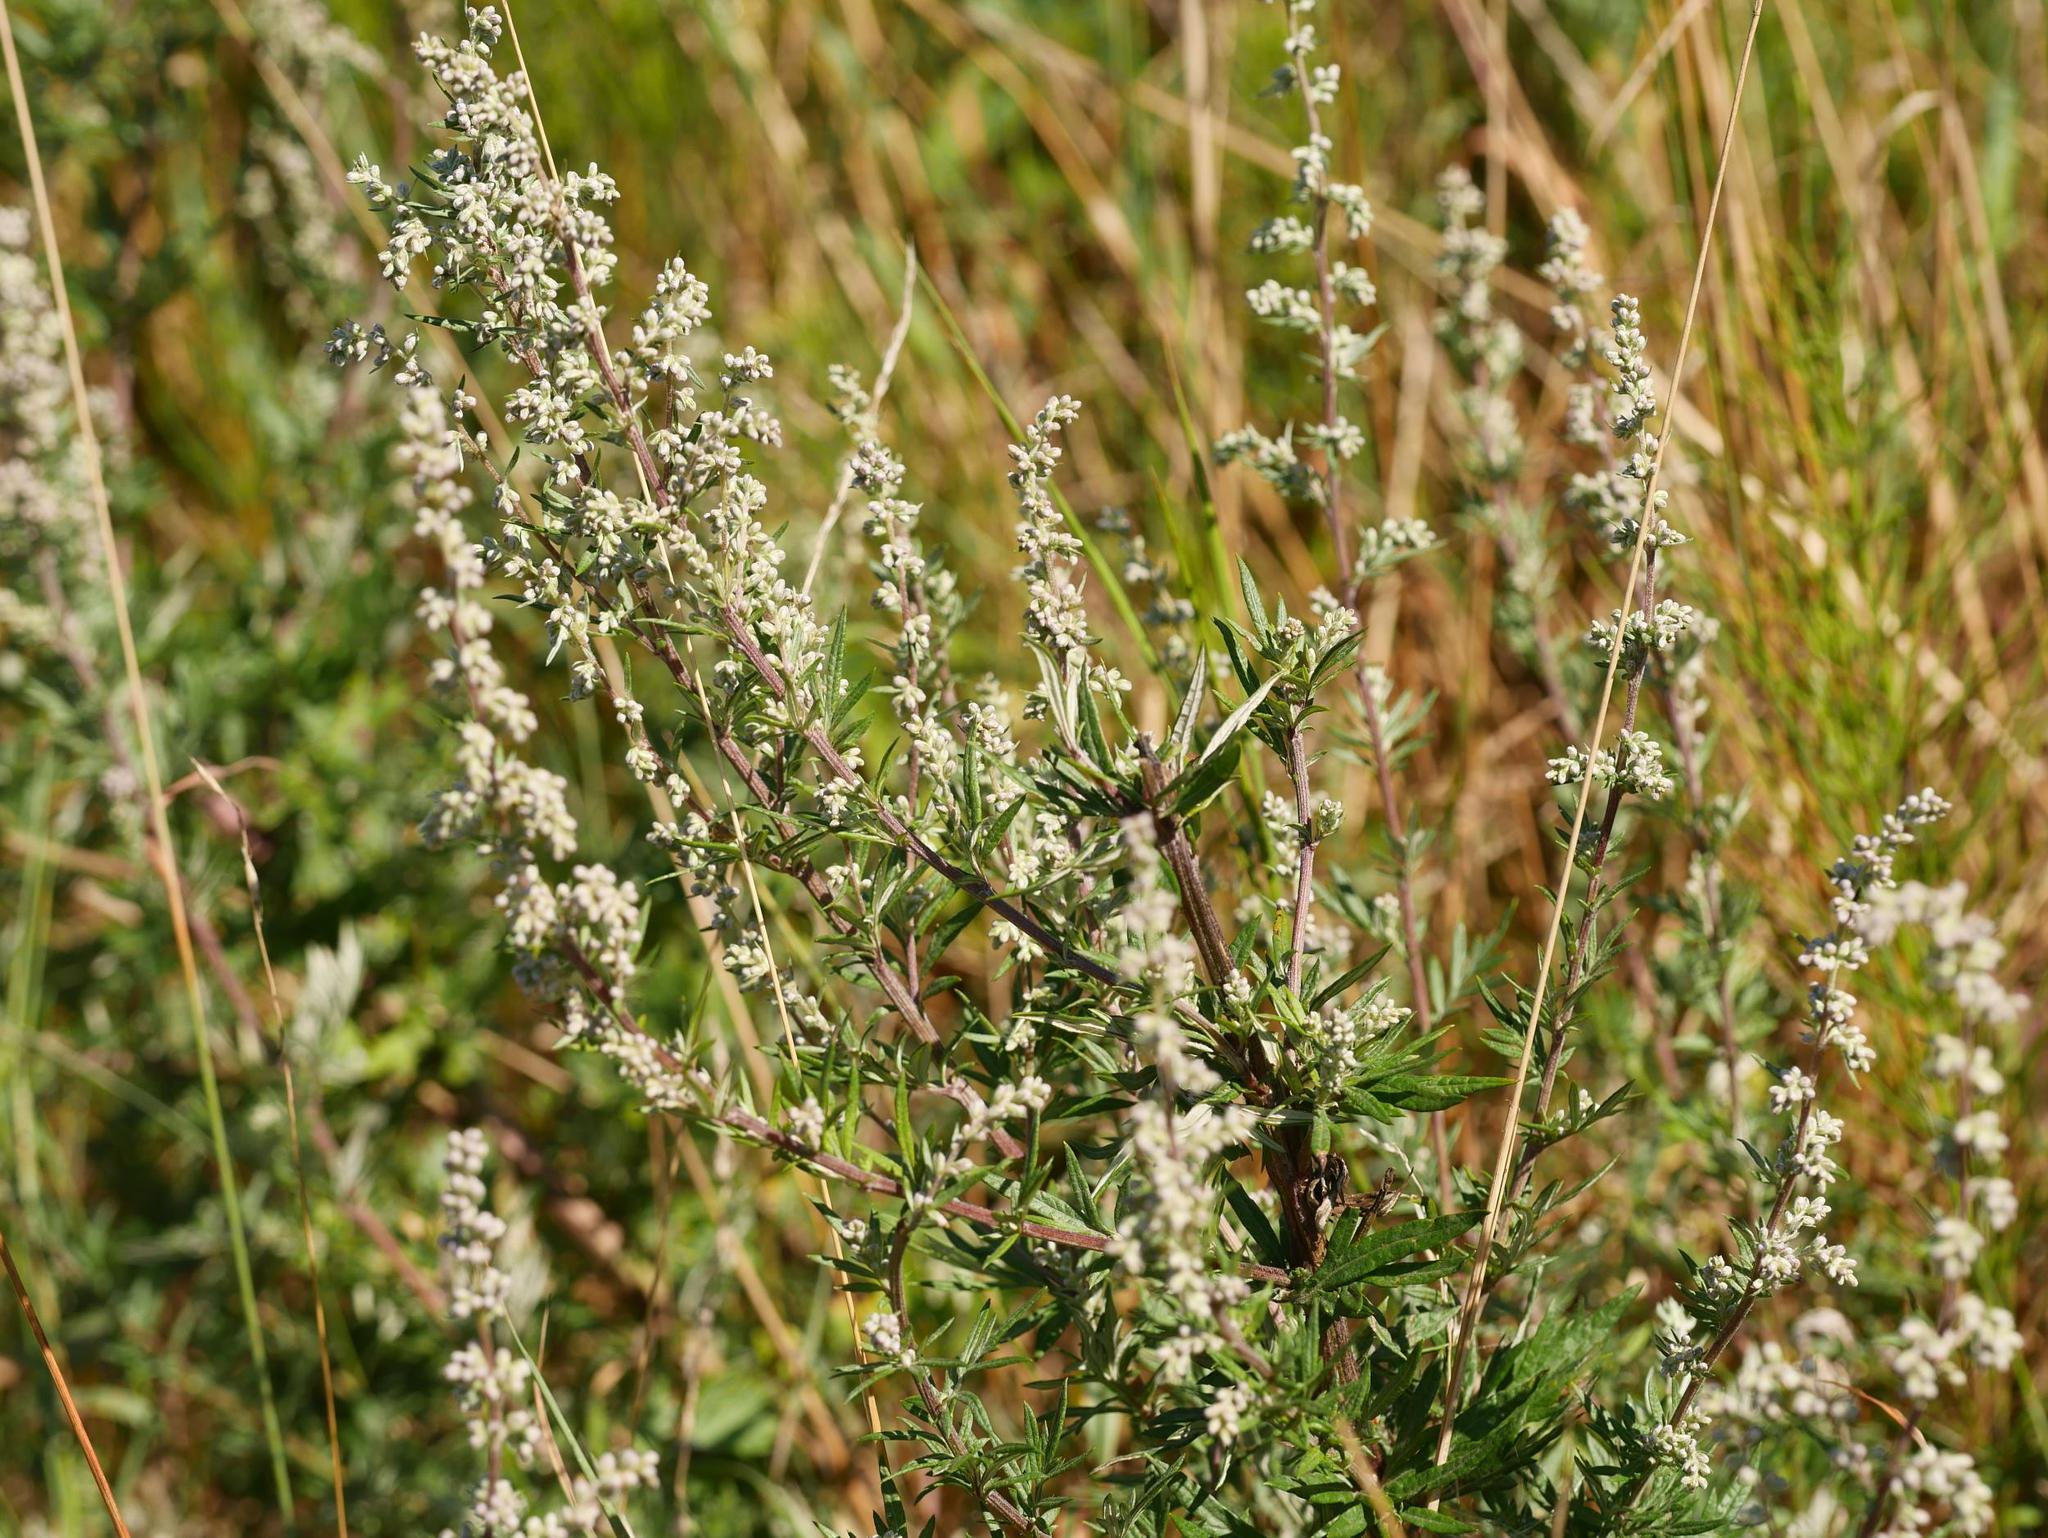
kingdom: Plantae
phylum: Tracheophyta
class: Magnoliopsida
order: Asterales
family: Asteraceae
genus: Artemisia
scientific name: Artemisia vulgaris
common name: Mugwort
